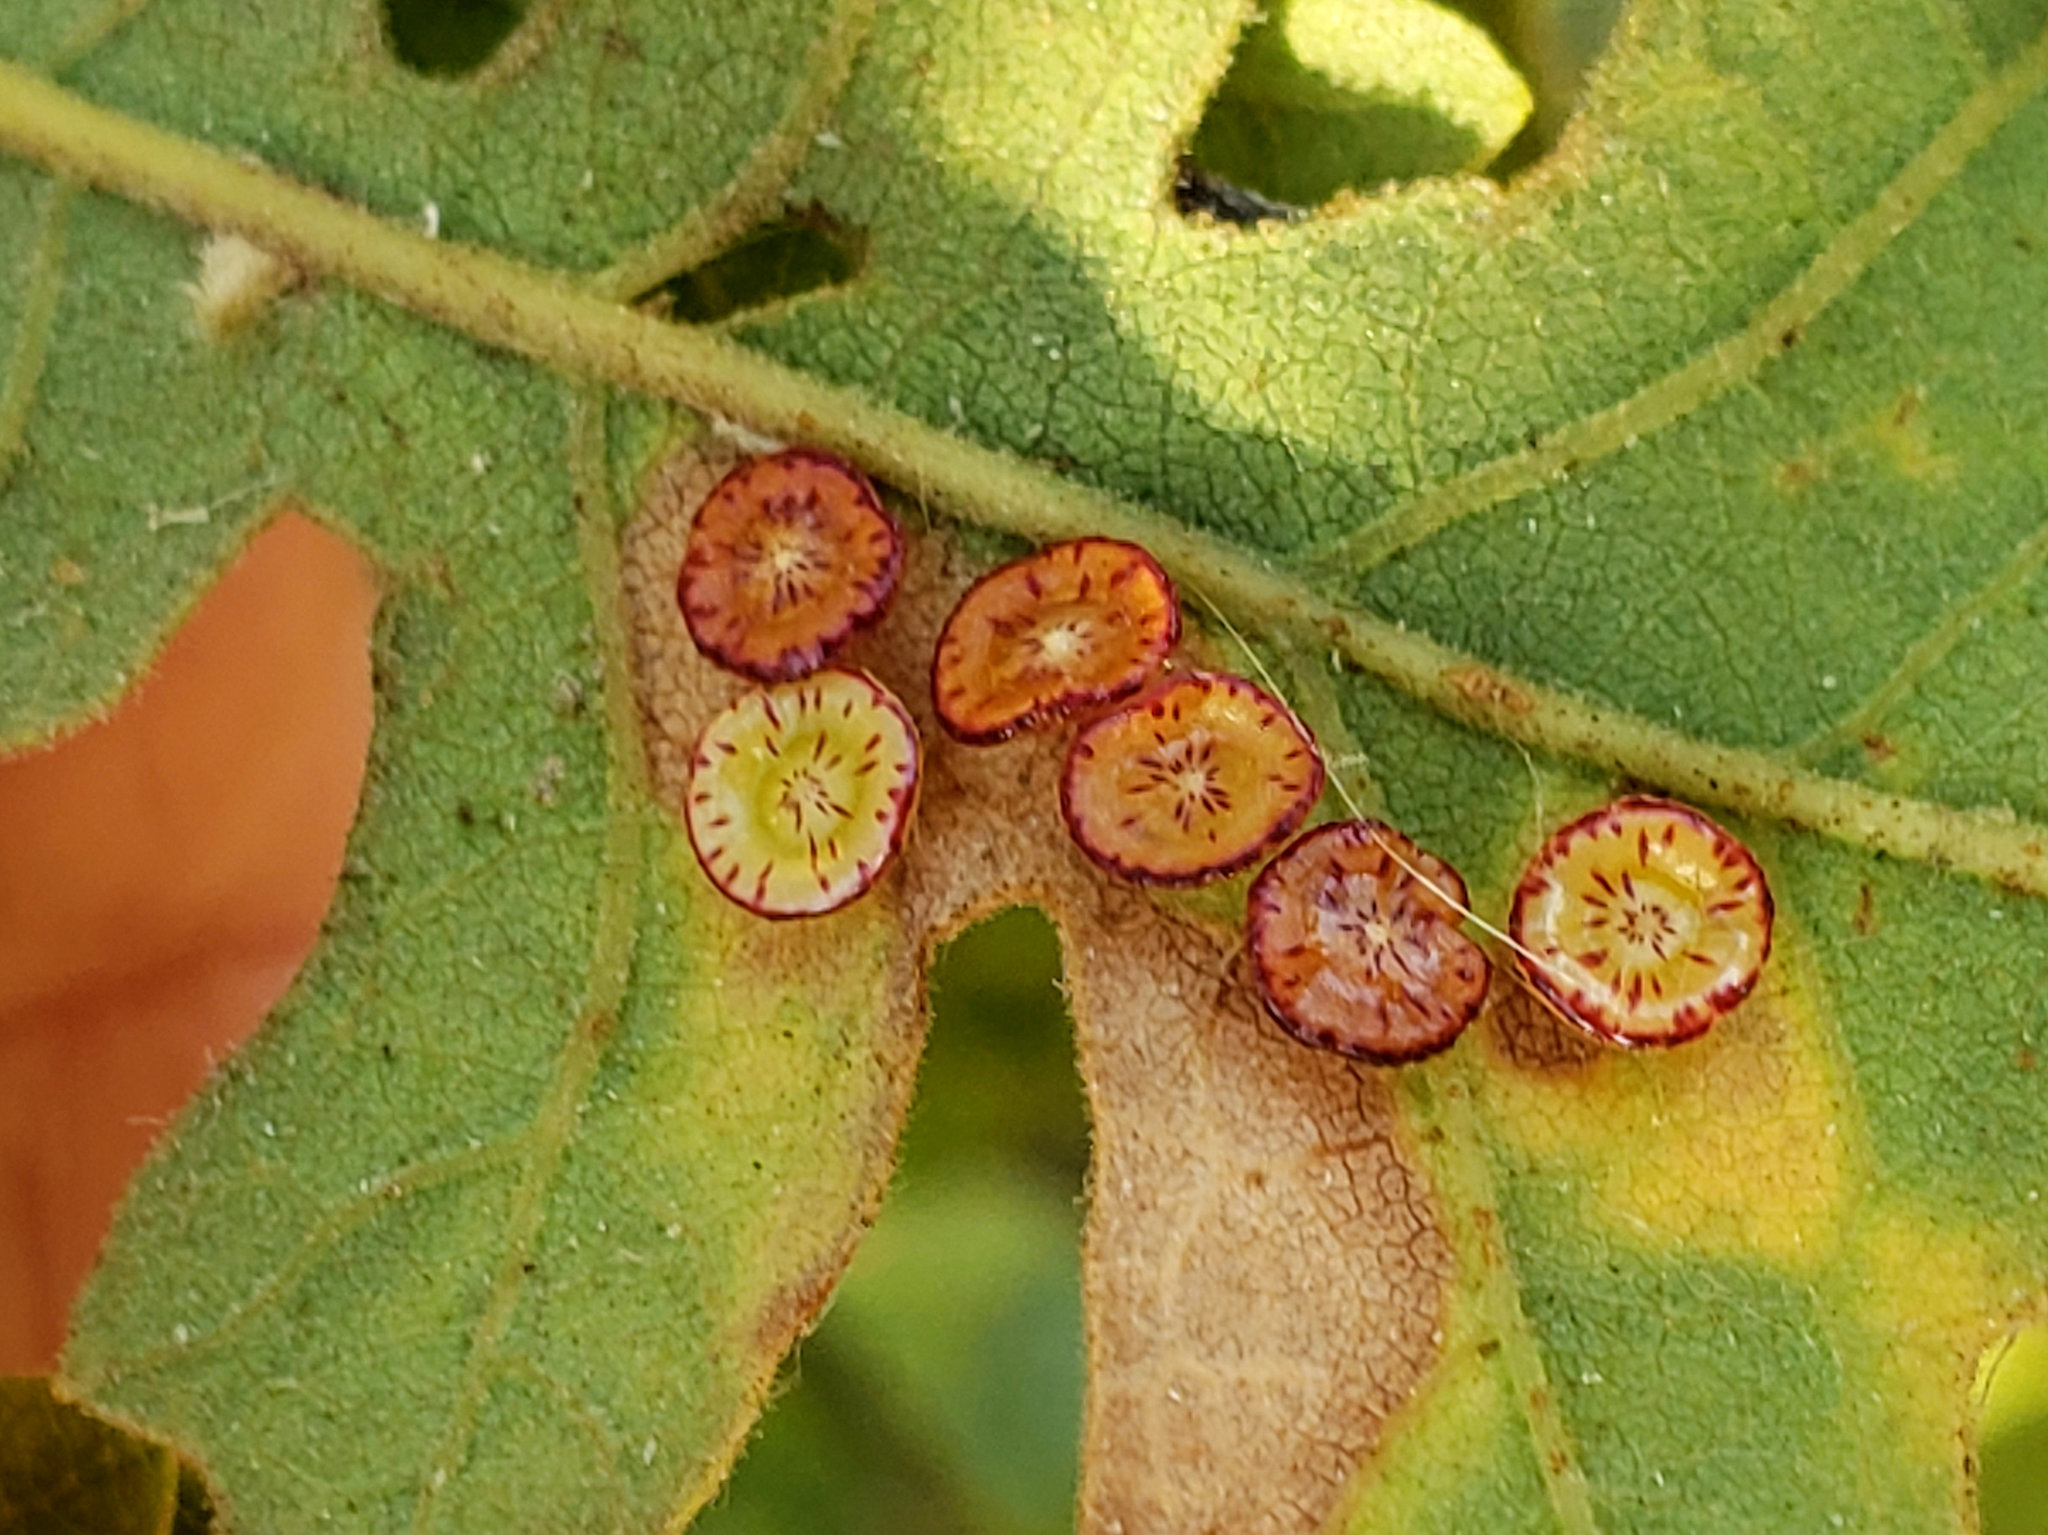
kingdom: Animalia
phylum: Arthropoda
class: Insecta
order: Hymenoptera
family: Cynipidae
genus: Andricus
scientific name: Andricus
